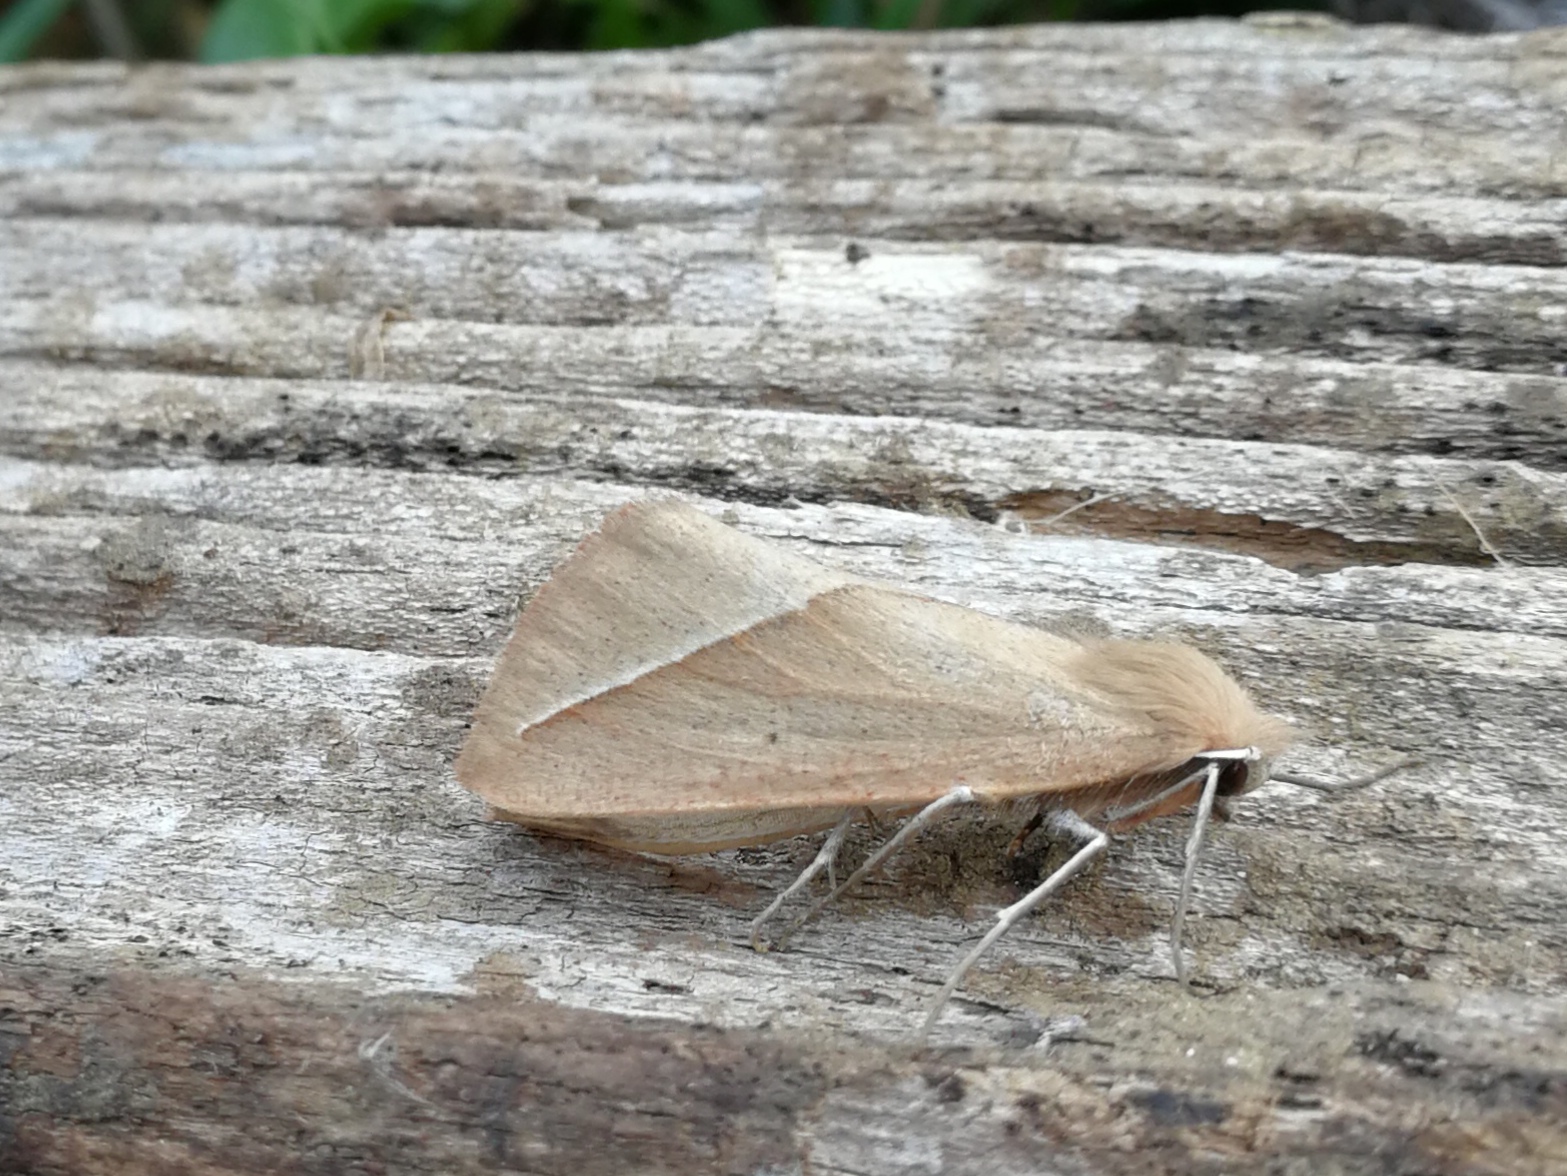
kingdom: Animalia
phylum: Arthropoda
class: Insecta
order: Lepidoptera
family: Geometridae
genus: Compsoptera
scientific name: Compsoptera opacaria
